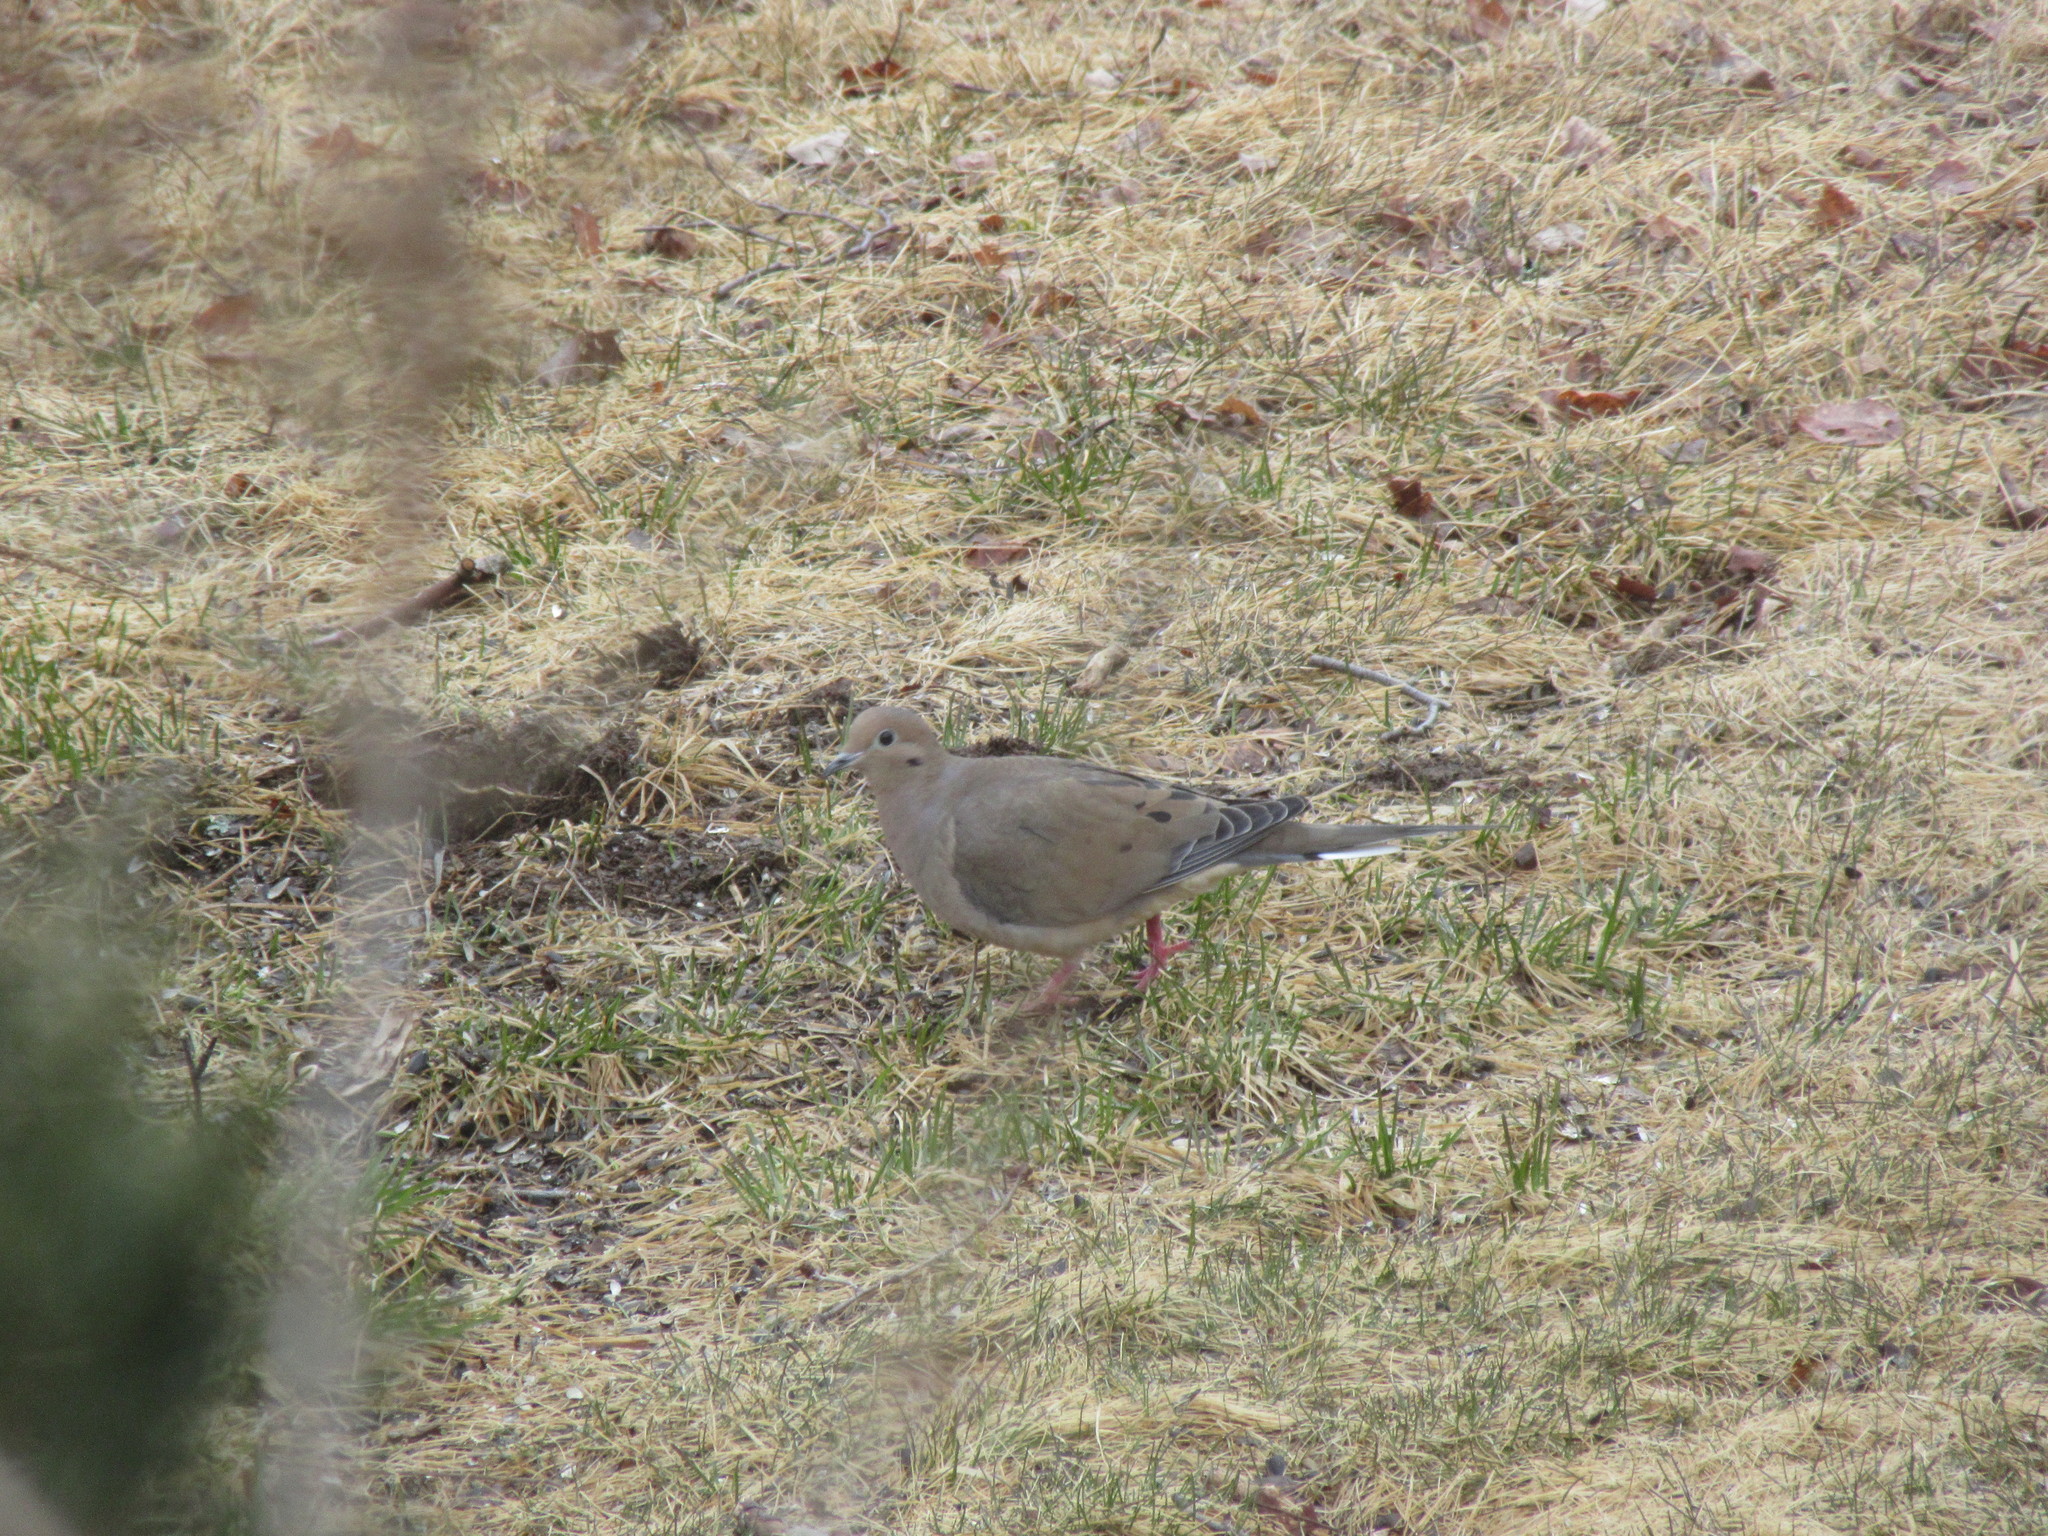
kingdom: Animalia
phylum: Chordata
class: Aves
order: Columbiformes
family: Columbidae
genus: Zenaida
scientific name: Zenaida macroura
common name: Mourning dove
